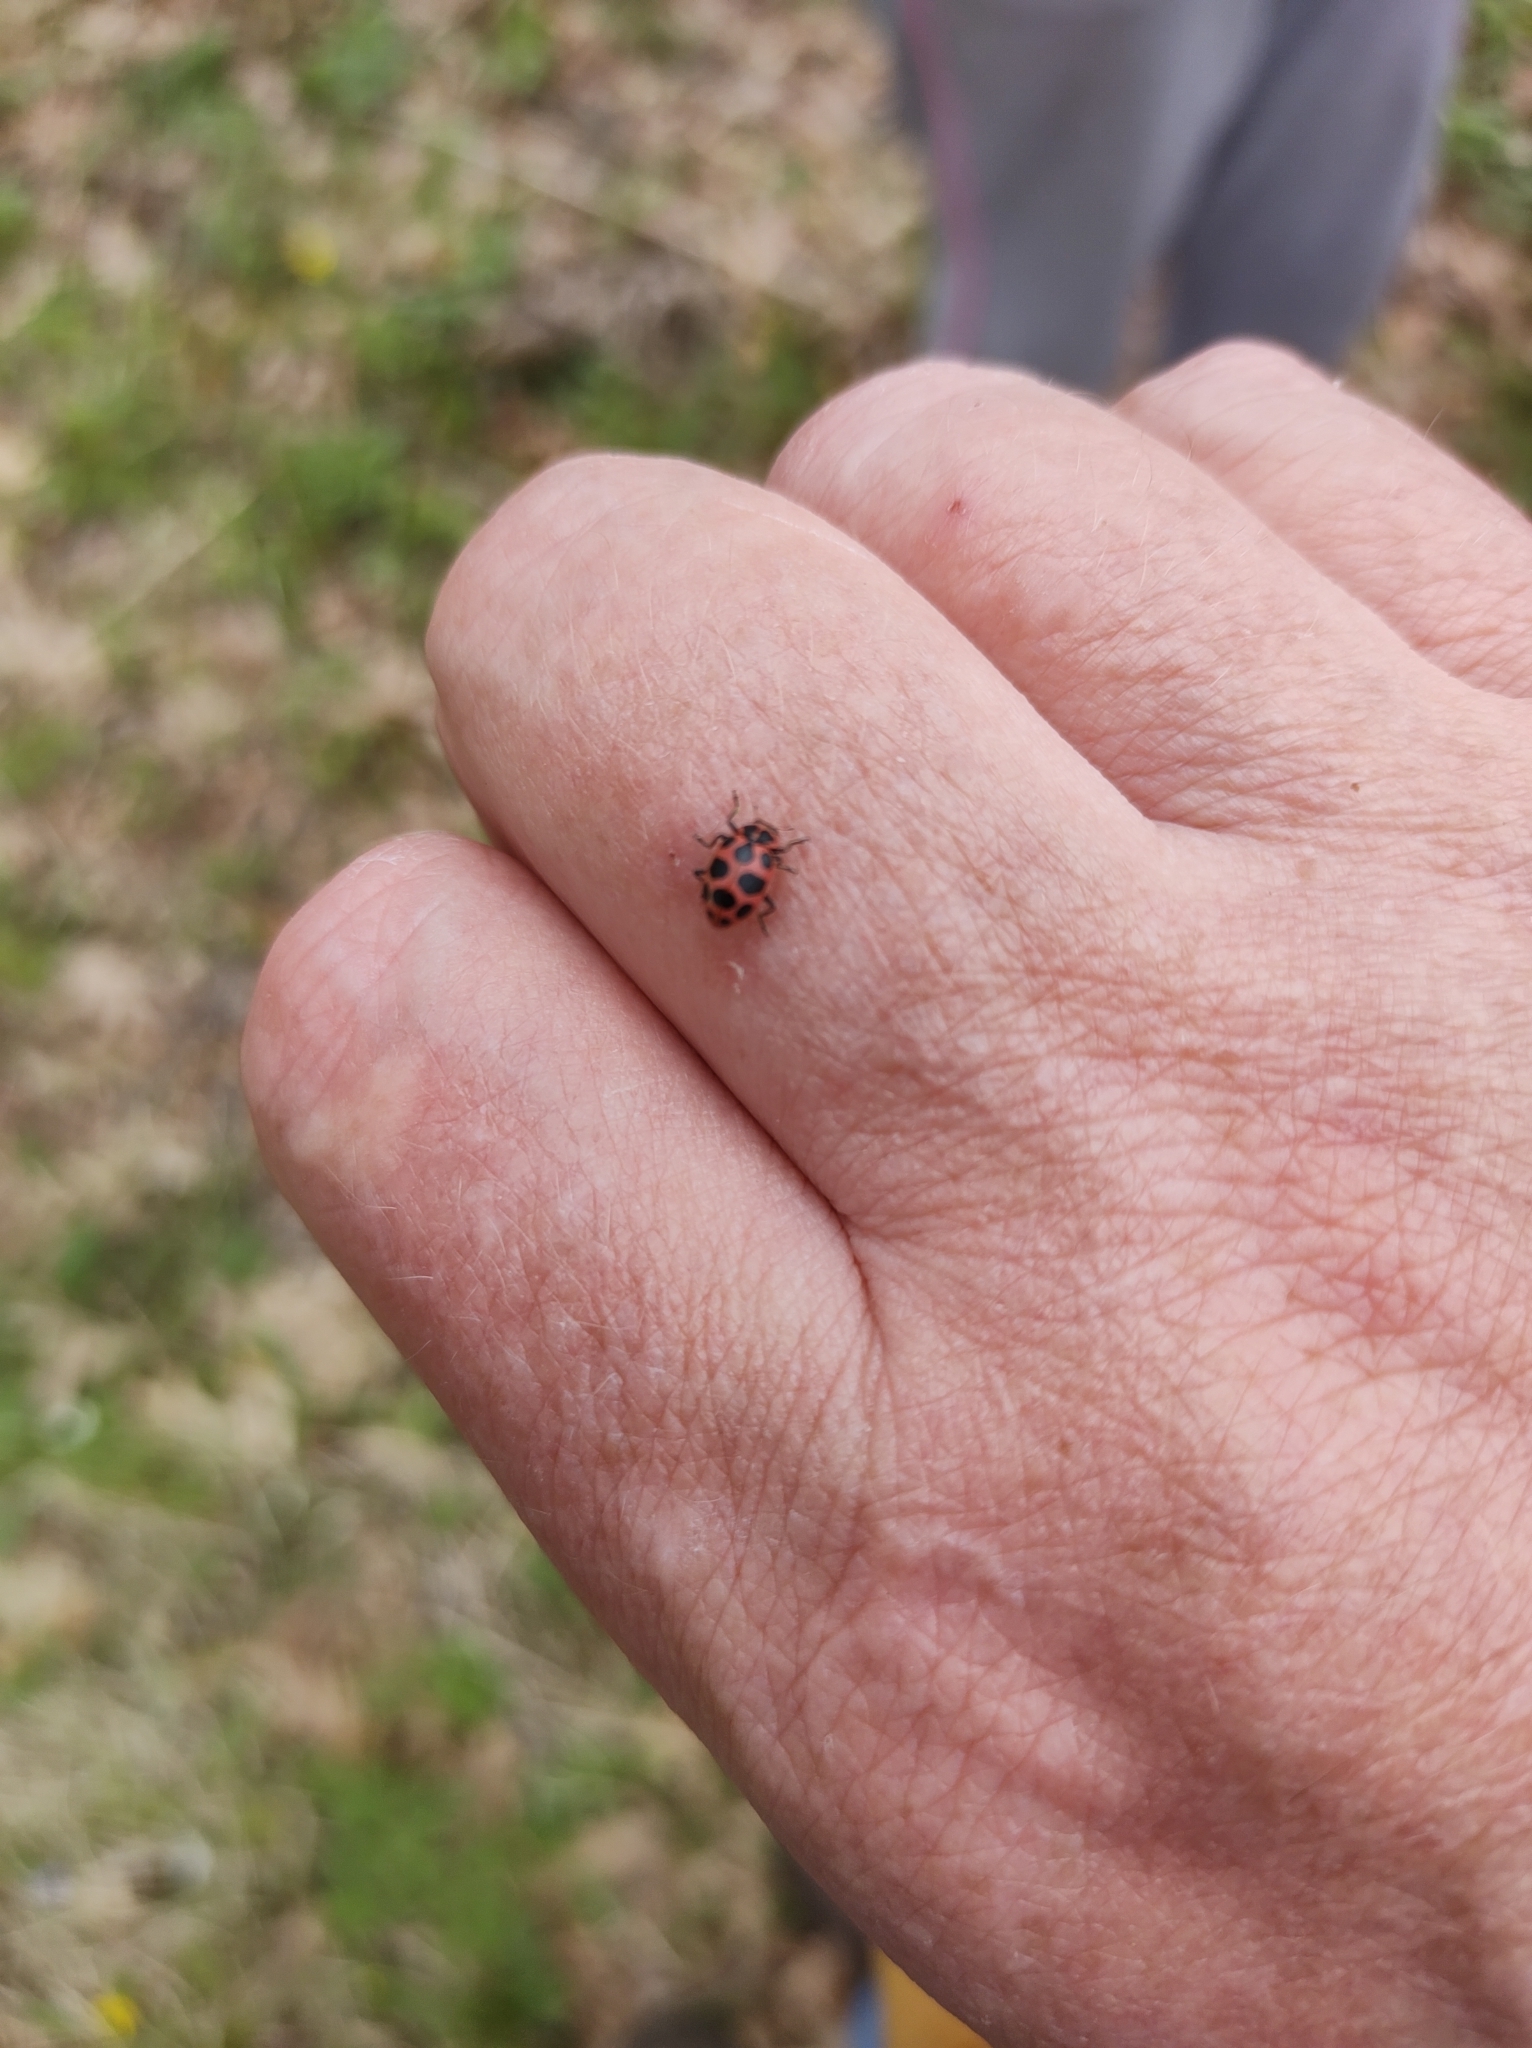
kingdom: Animalia
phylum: Arthropoda
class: Insecta
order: Coleoptera
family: Coccinellidae
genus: Coleomegilla
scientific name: Coleomegilla maculata
